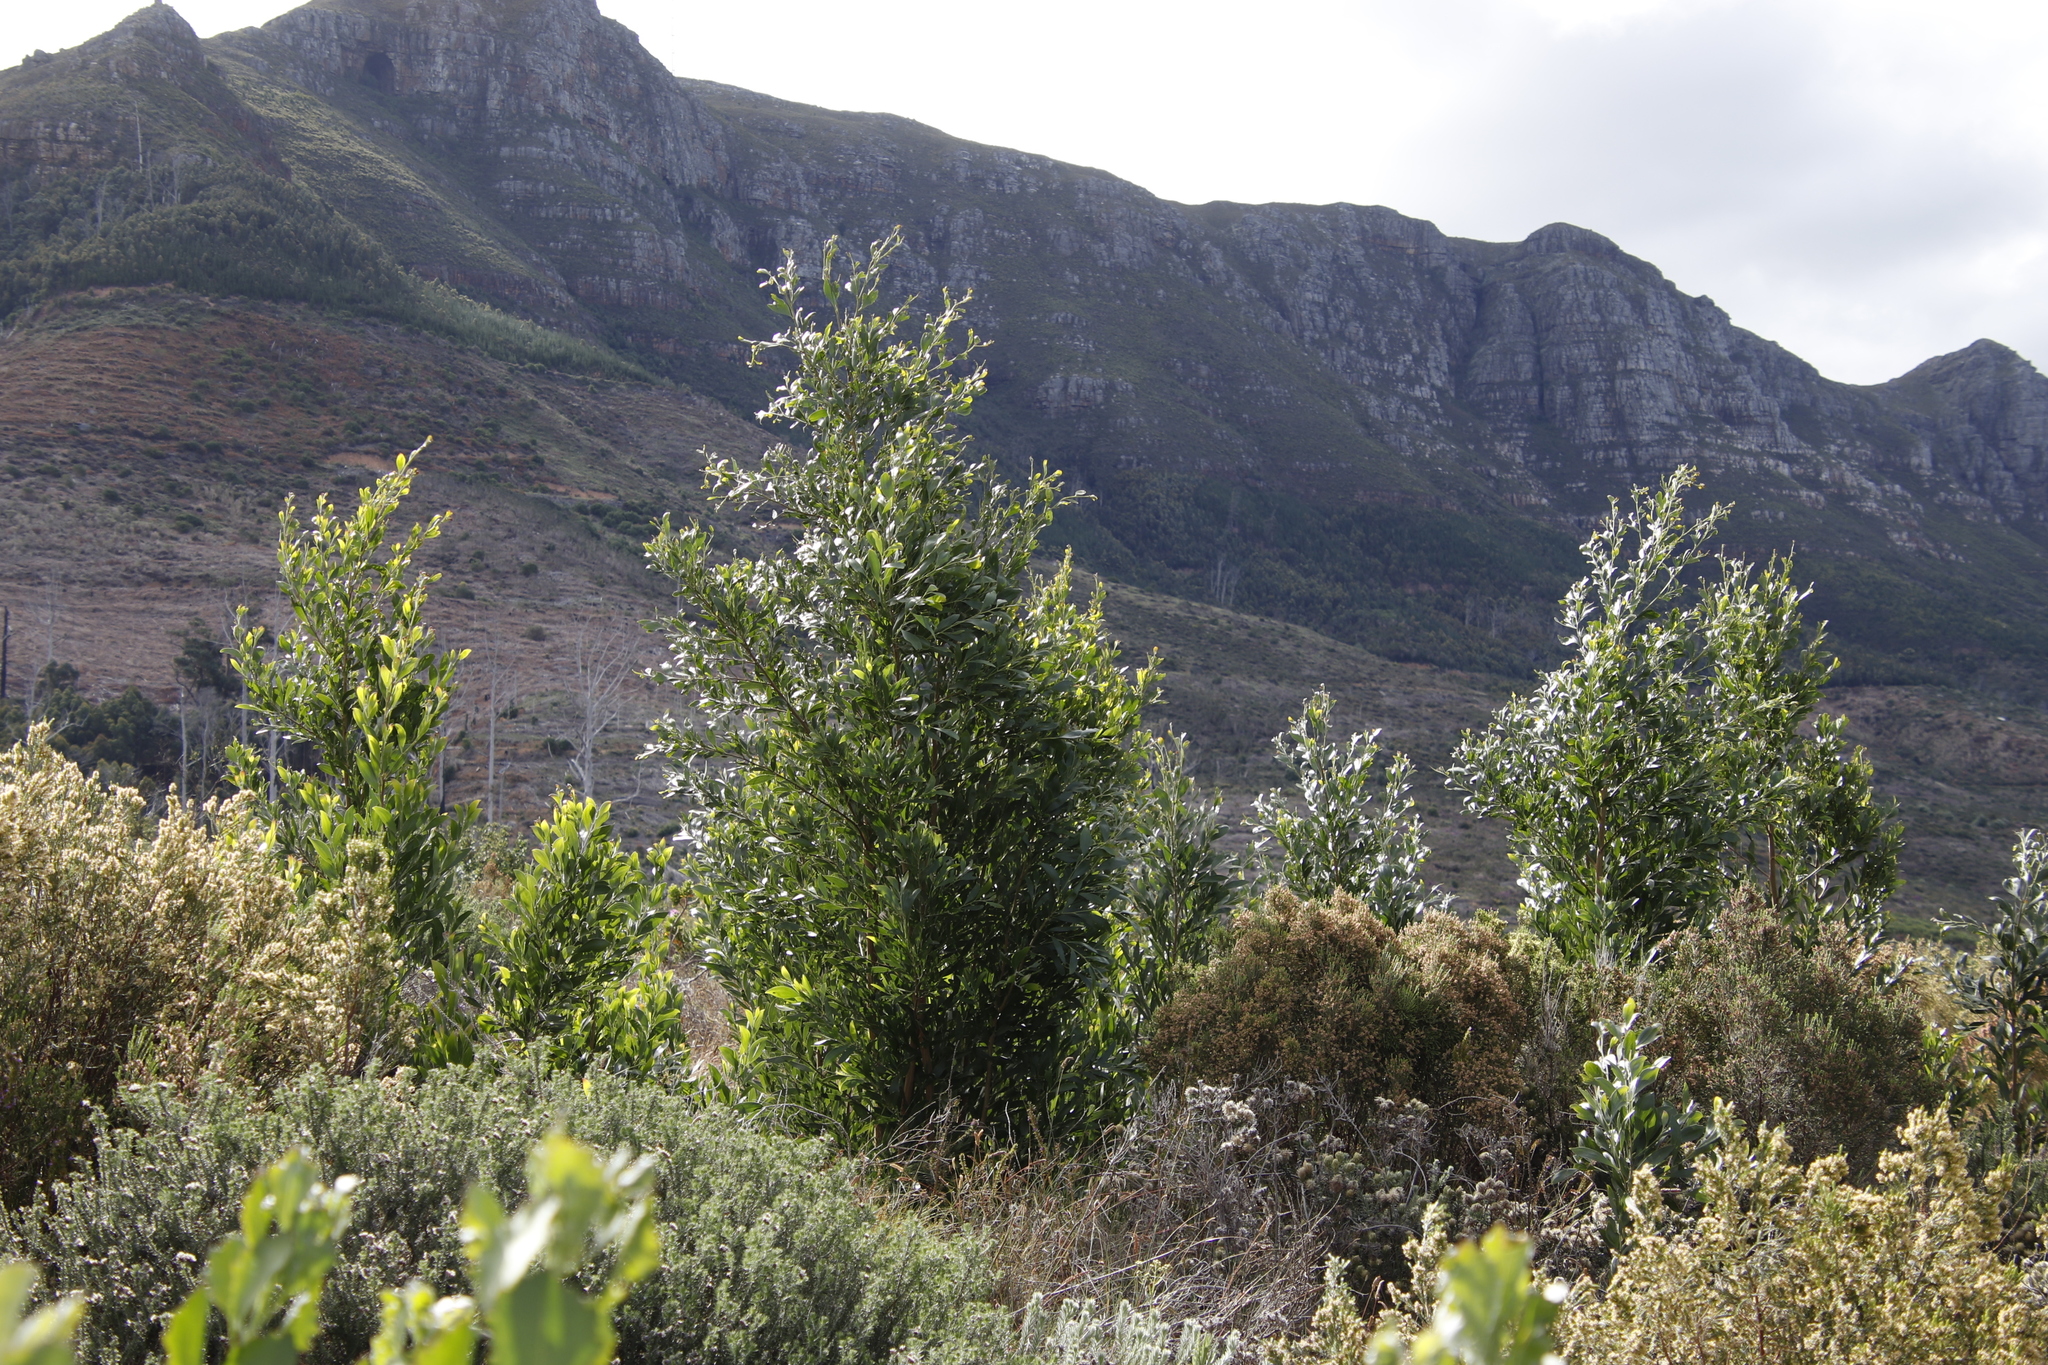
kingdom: Plantae
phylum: Tracheophyta
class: Magnoliopsida
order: Fabales
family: Fabaceae
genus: Acacia
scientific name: Acacia melanoxylon
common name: Blackwood
